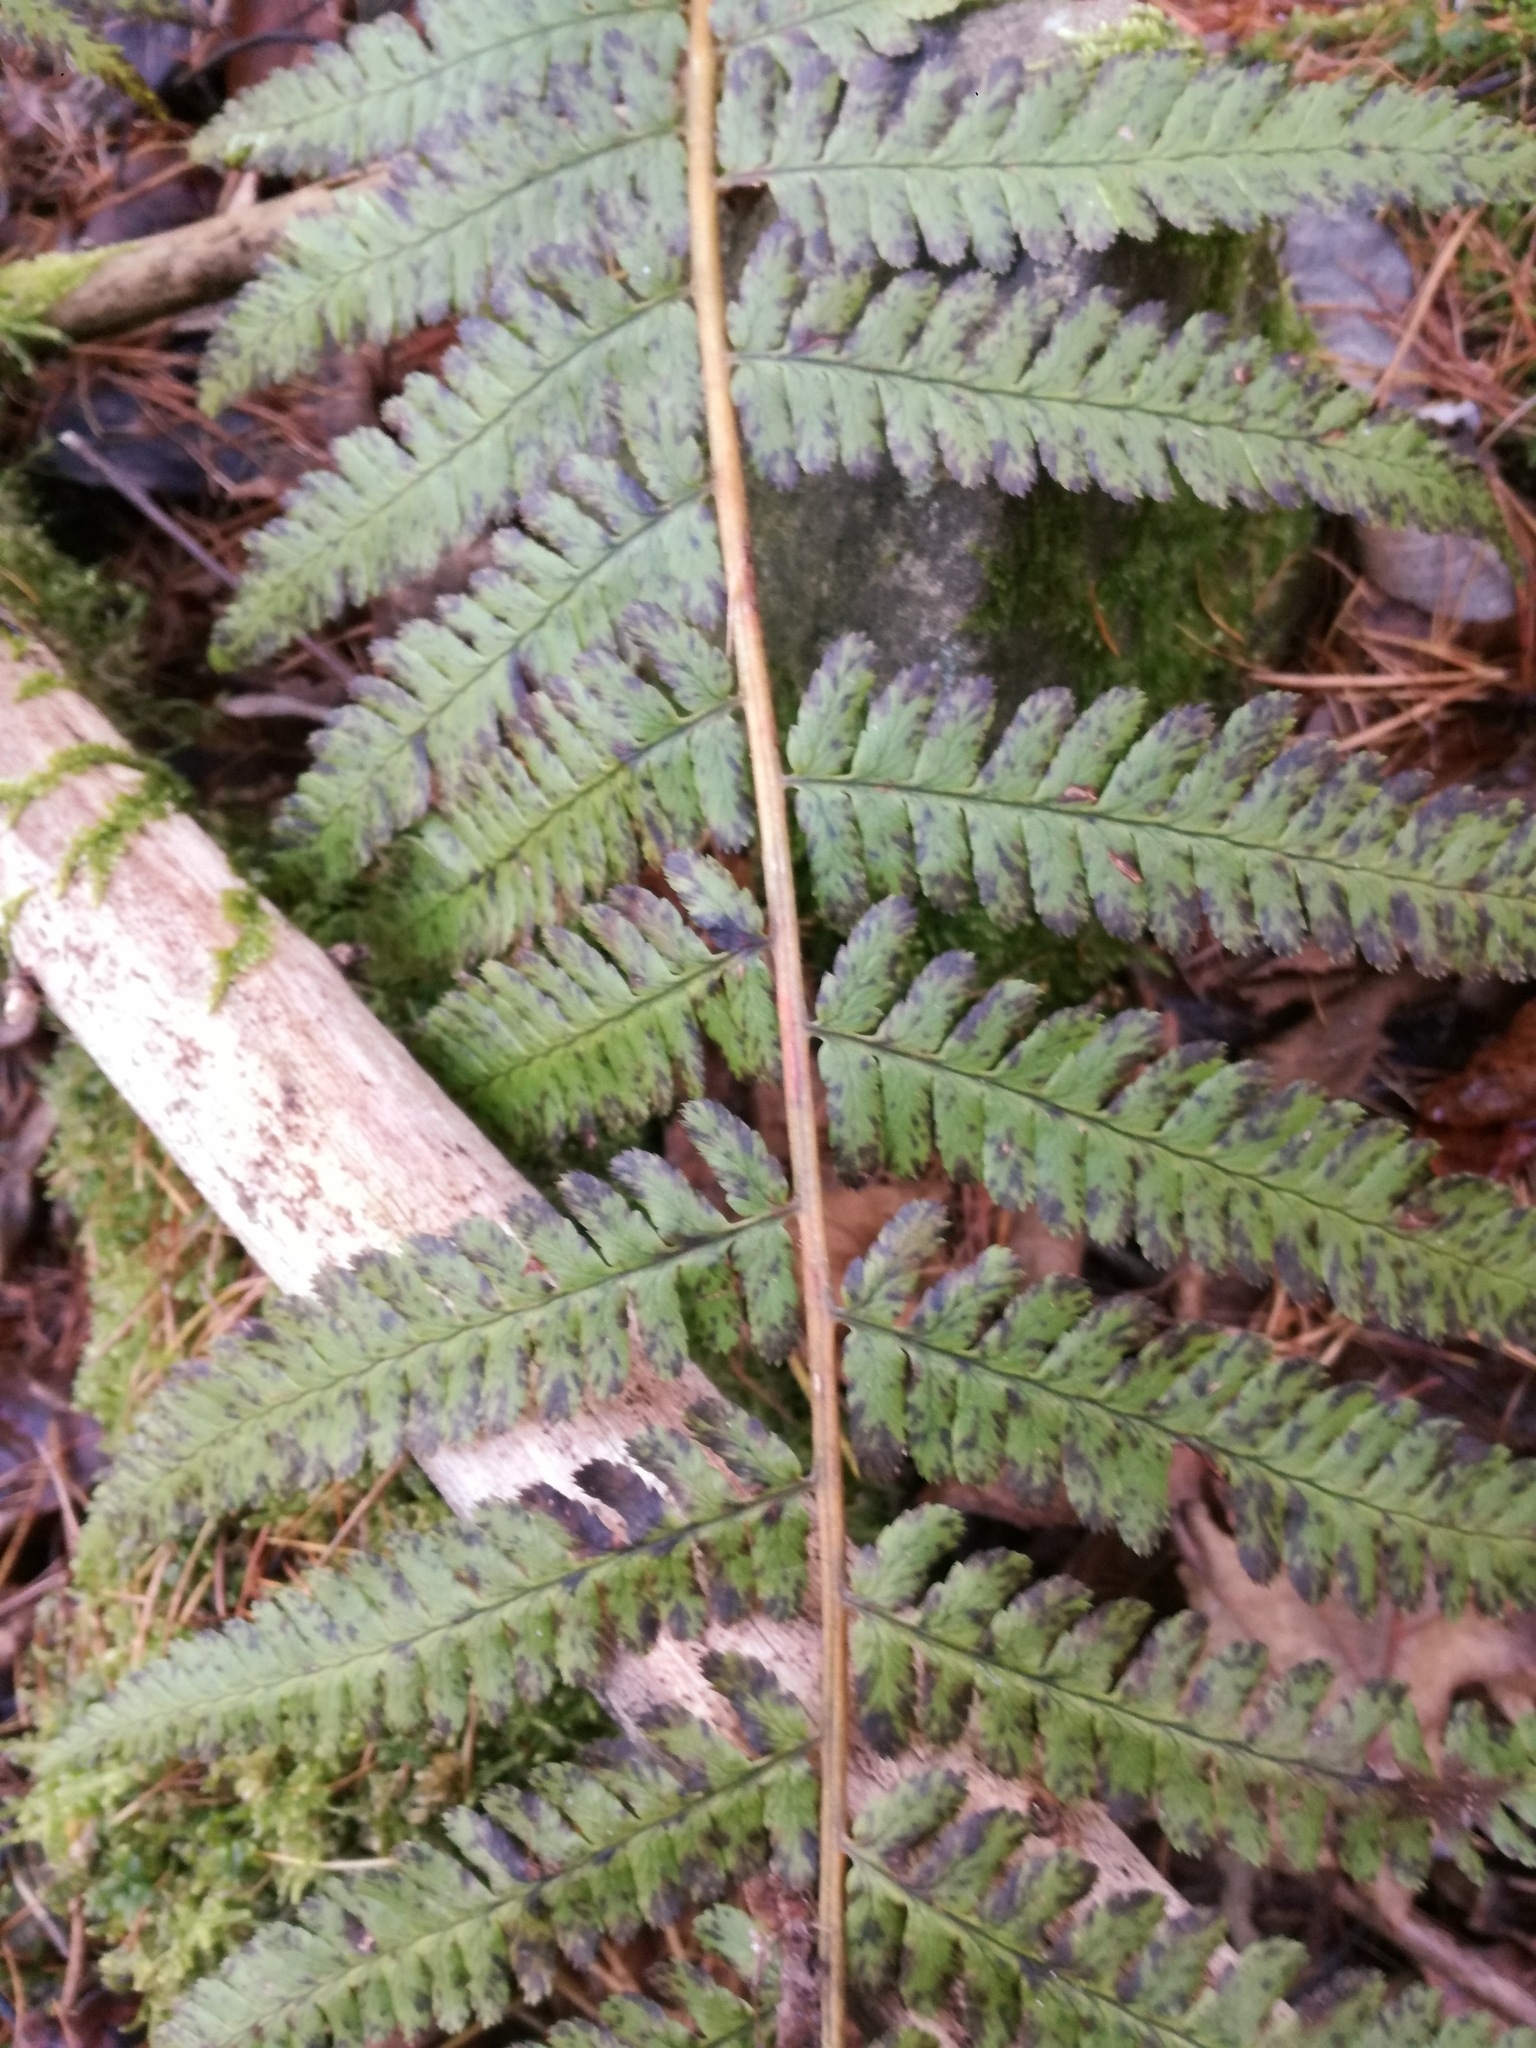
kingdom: Plantae
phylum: Tracheophyta
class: Polypodiopsida
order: Polypodiales
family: Dryopteridaceae
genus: Dryopteris
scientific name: Dryopteris filix-mas
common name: Male fern
